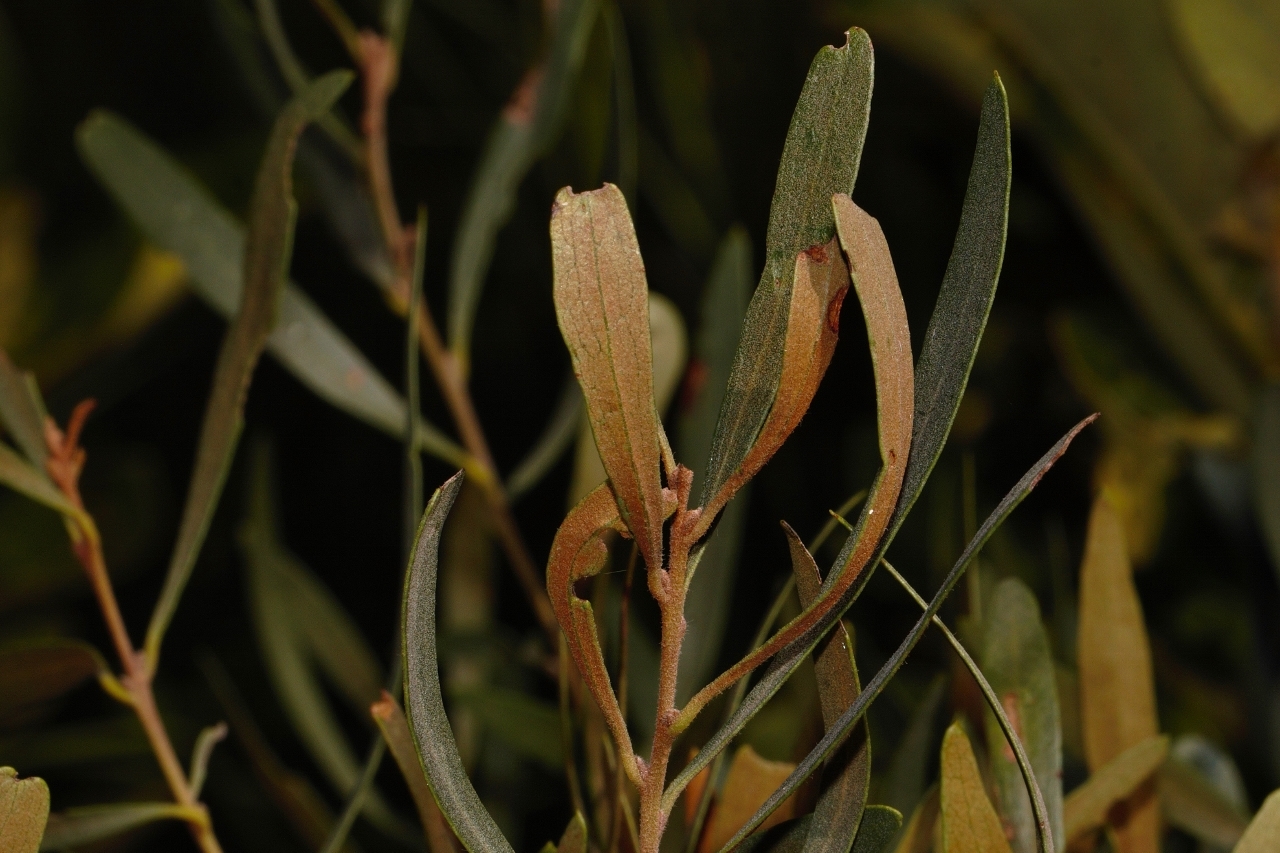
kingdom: Plantae
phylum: Tracheophyta
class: Magnoliopsida
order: Ericales
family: Ebenaceae
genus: Euclea
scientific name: Euclea crispa
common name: Blue guarri
